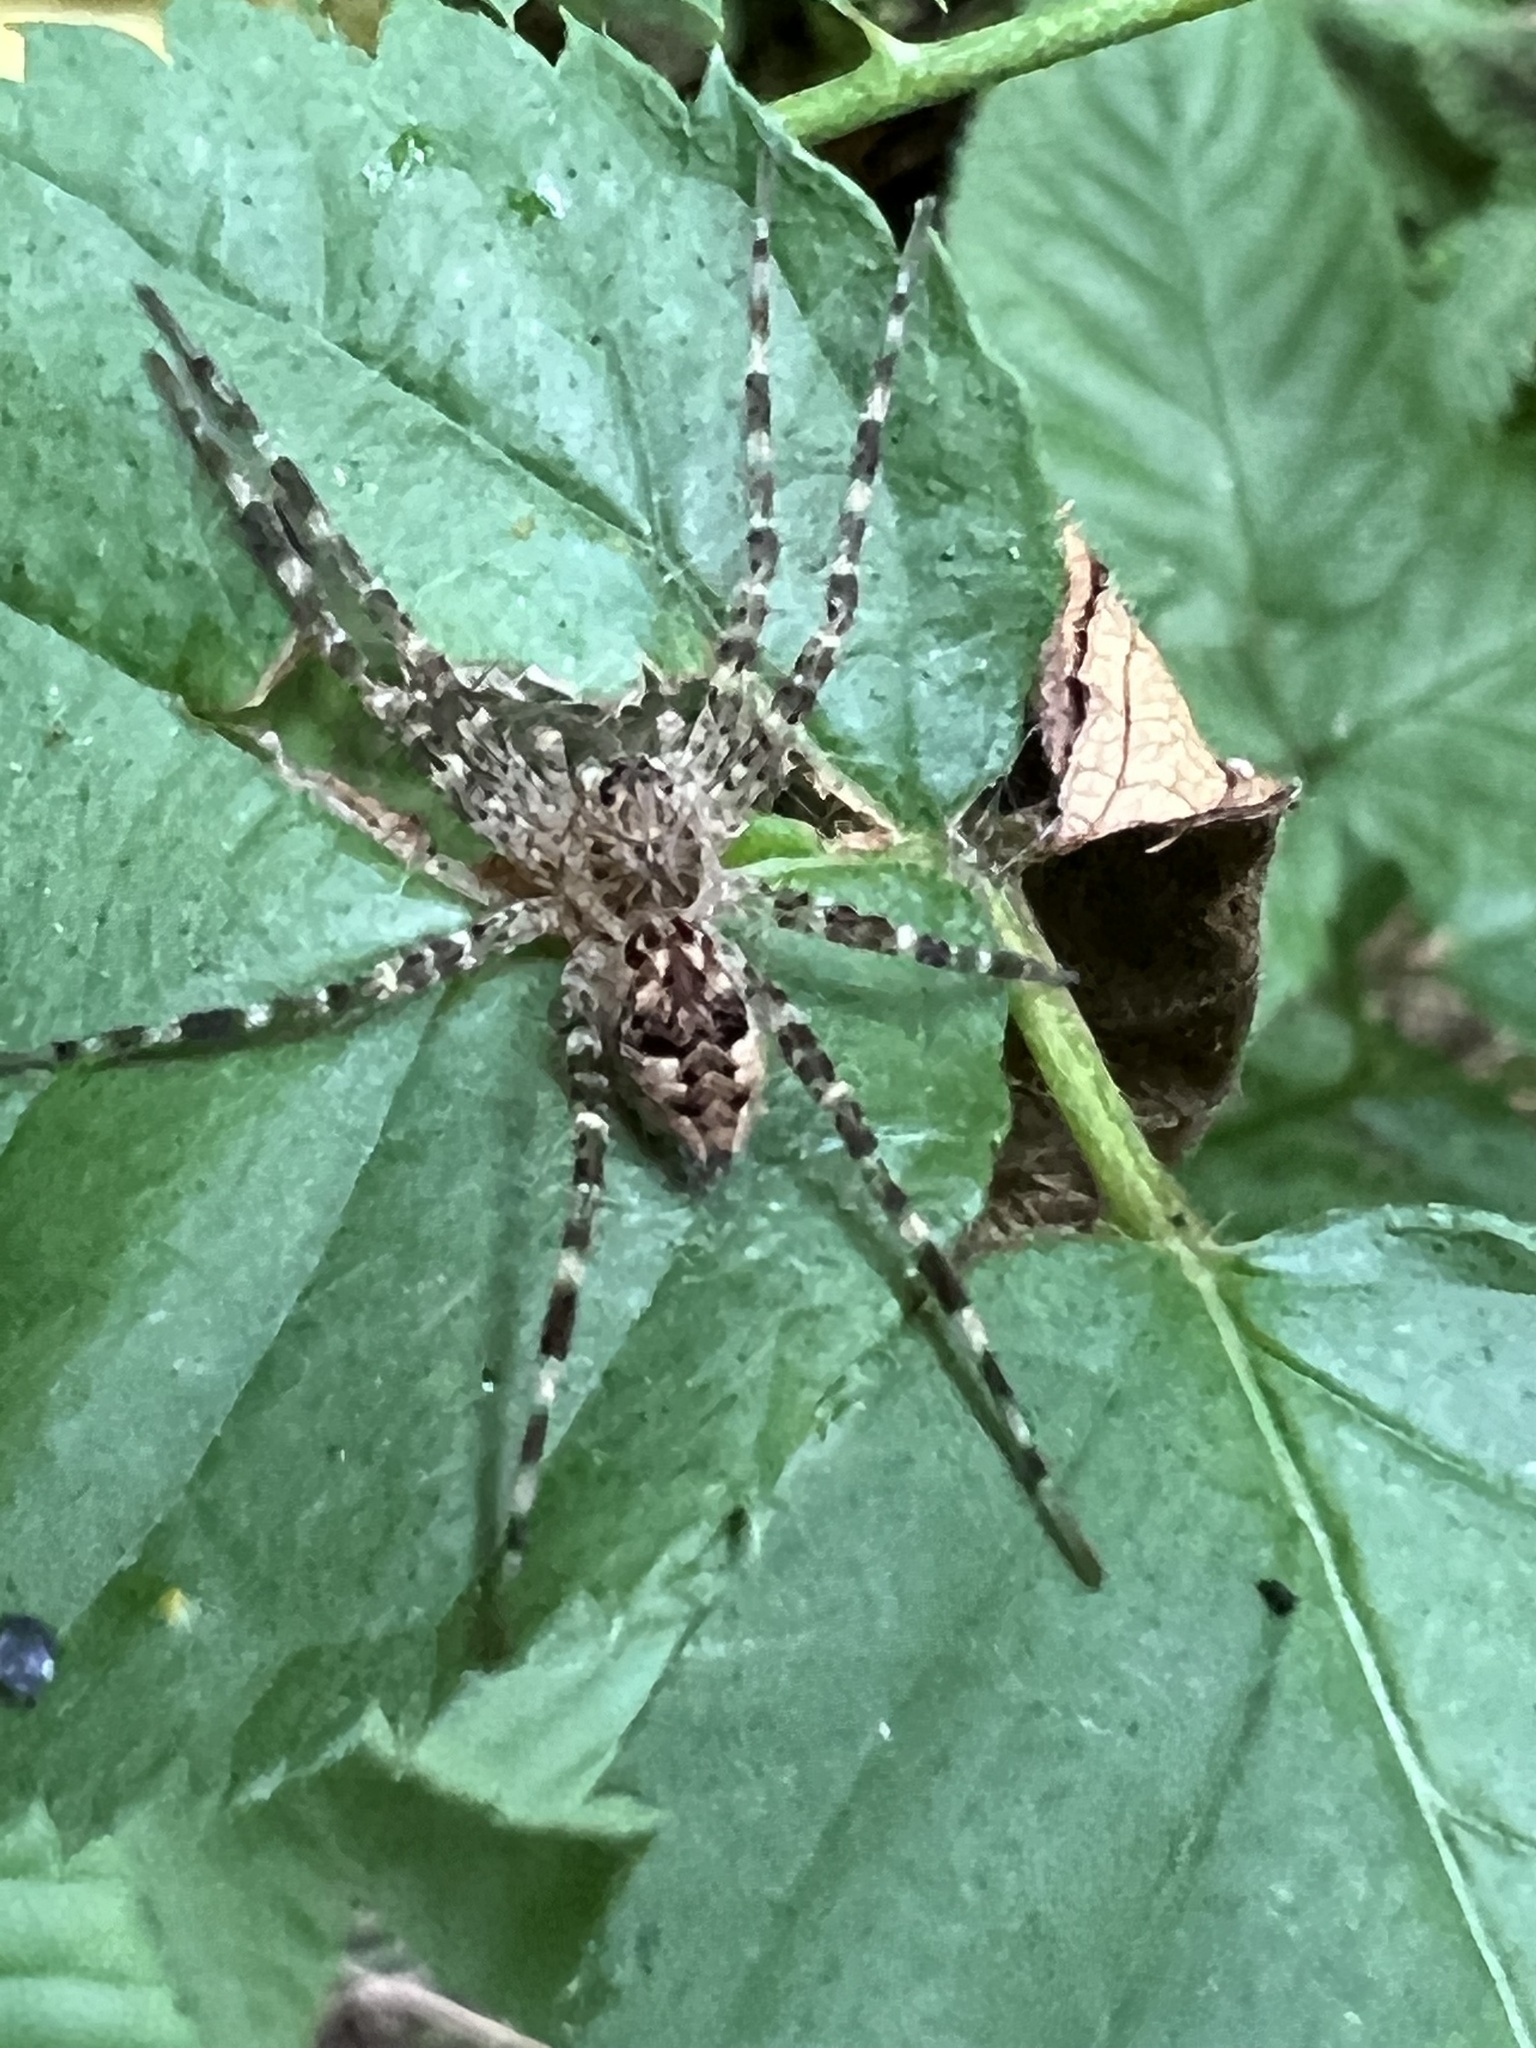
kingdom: Animalia
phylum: Arthropoda
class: Arachnida
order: Araneae
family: Pisauridae
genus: Dolomedes
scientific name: Dolomedes tenebrosus
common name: Dark fishing spider
